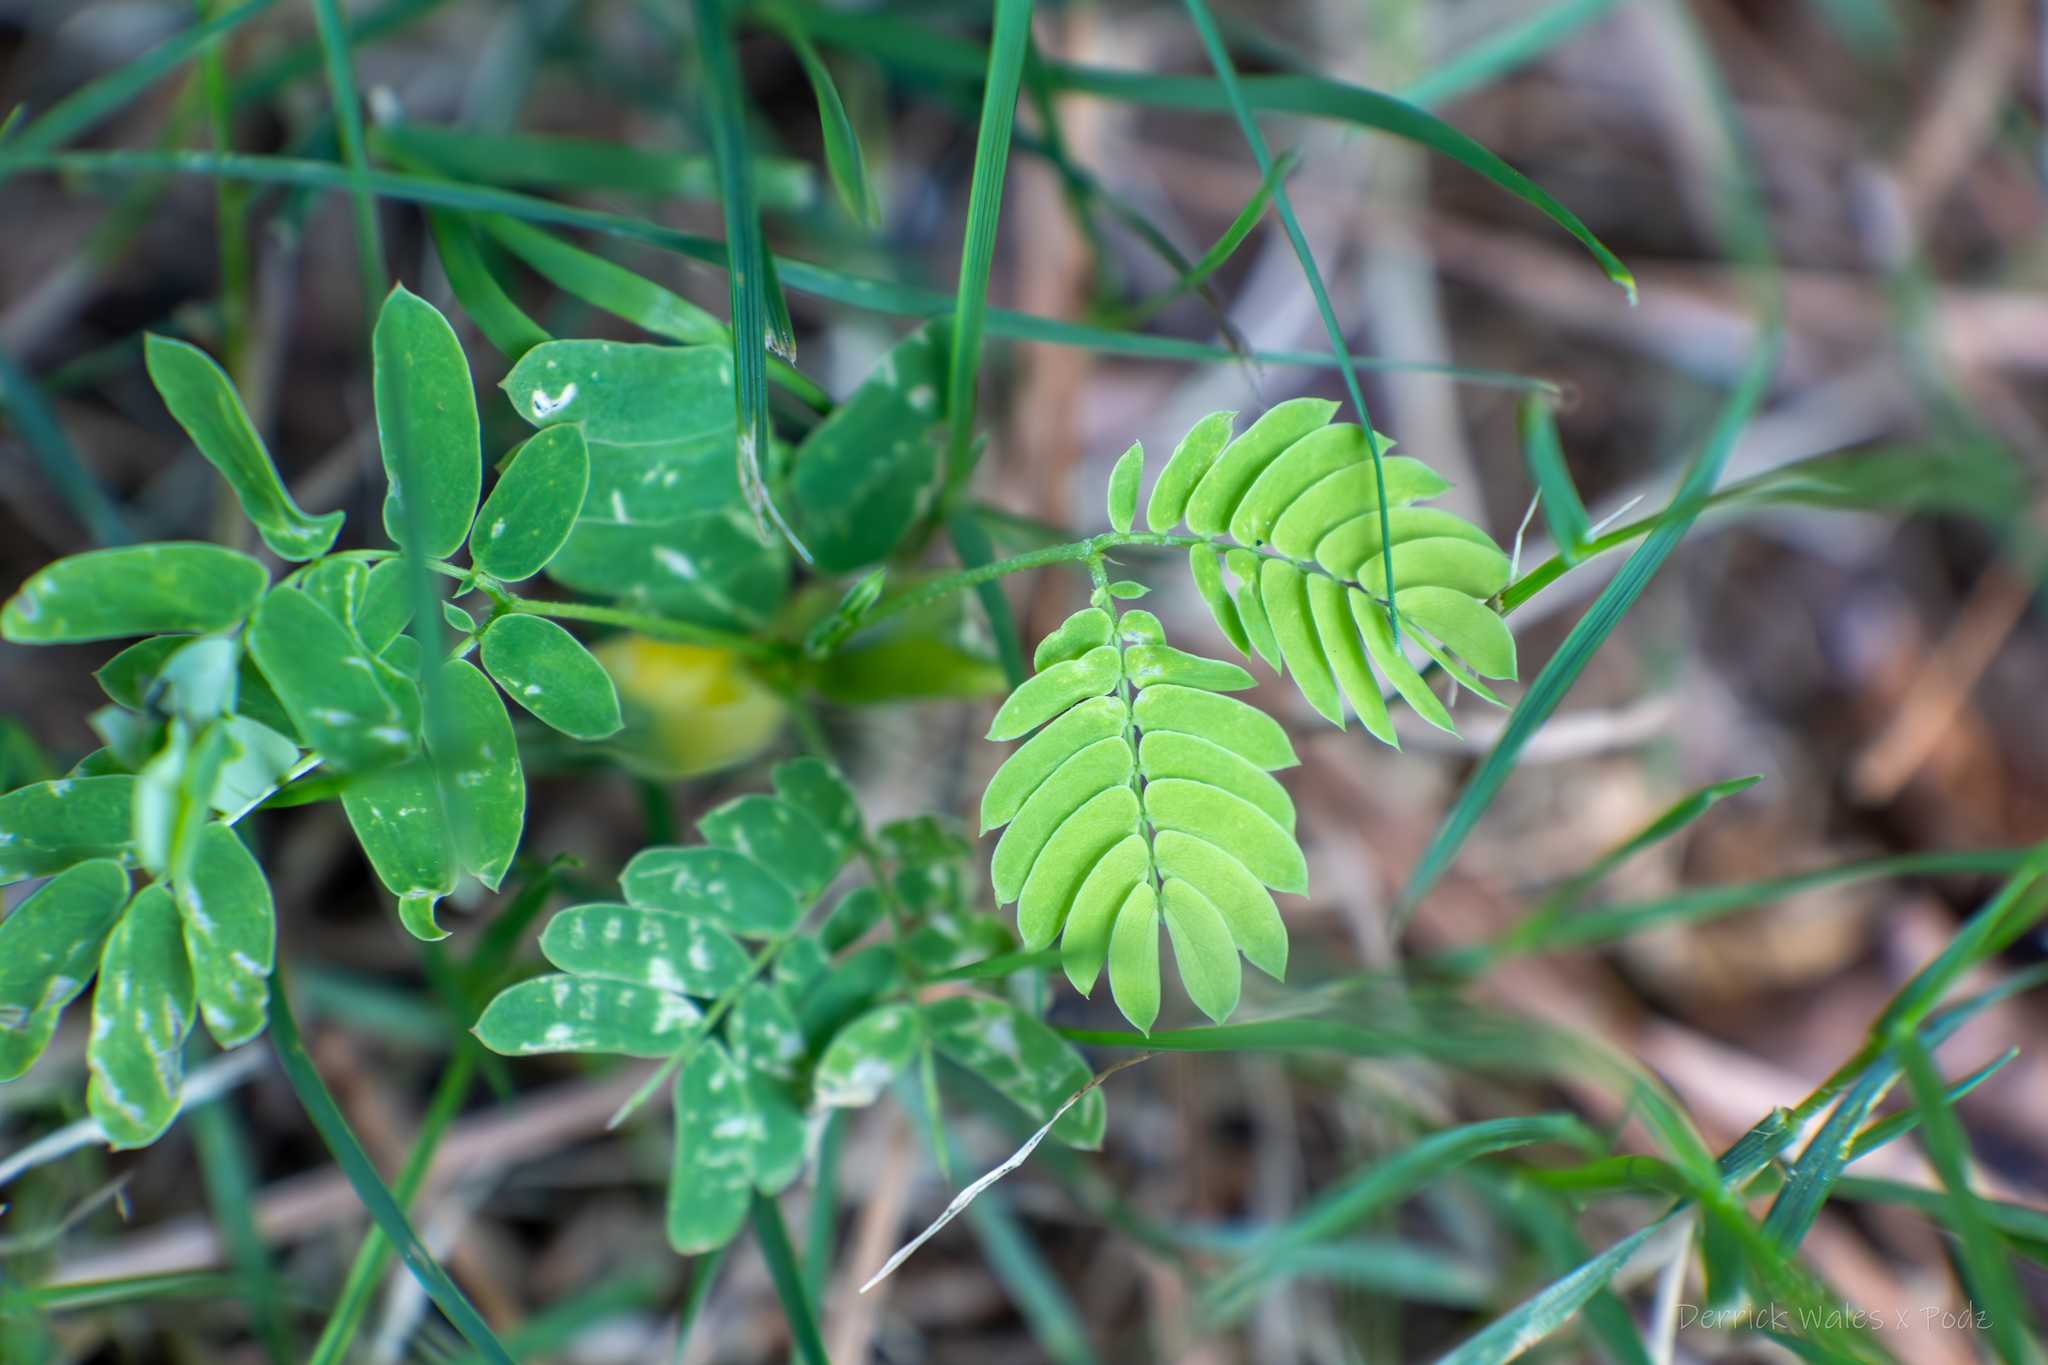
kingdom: Plantae
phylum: Tracheophyta
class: Magnoliopsida
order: Fabales
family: Fabaceae
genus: Albizia
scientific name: Albizia julibrissin
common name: Silktree
